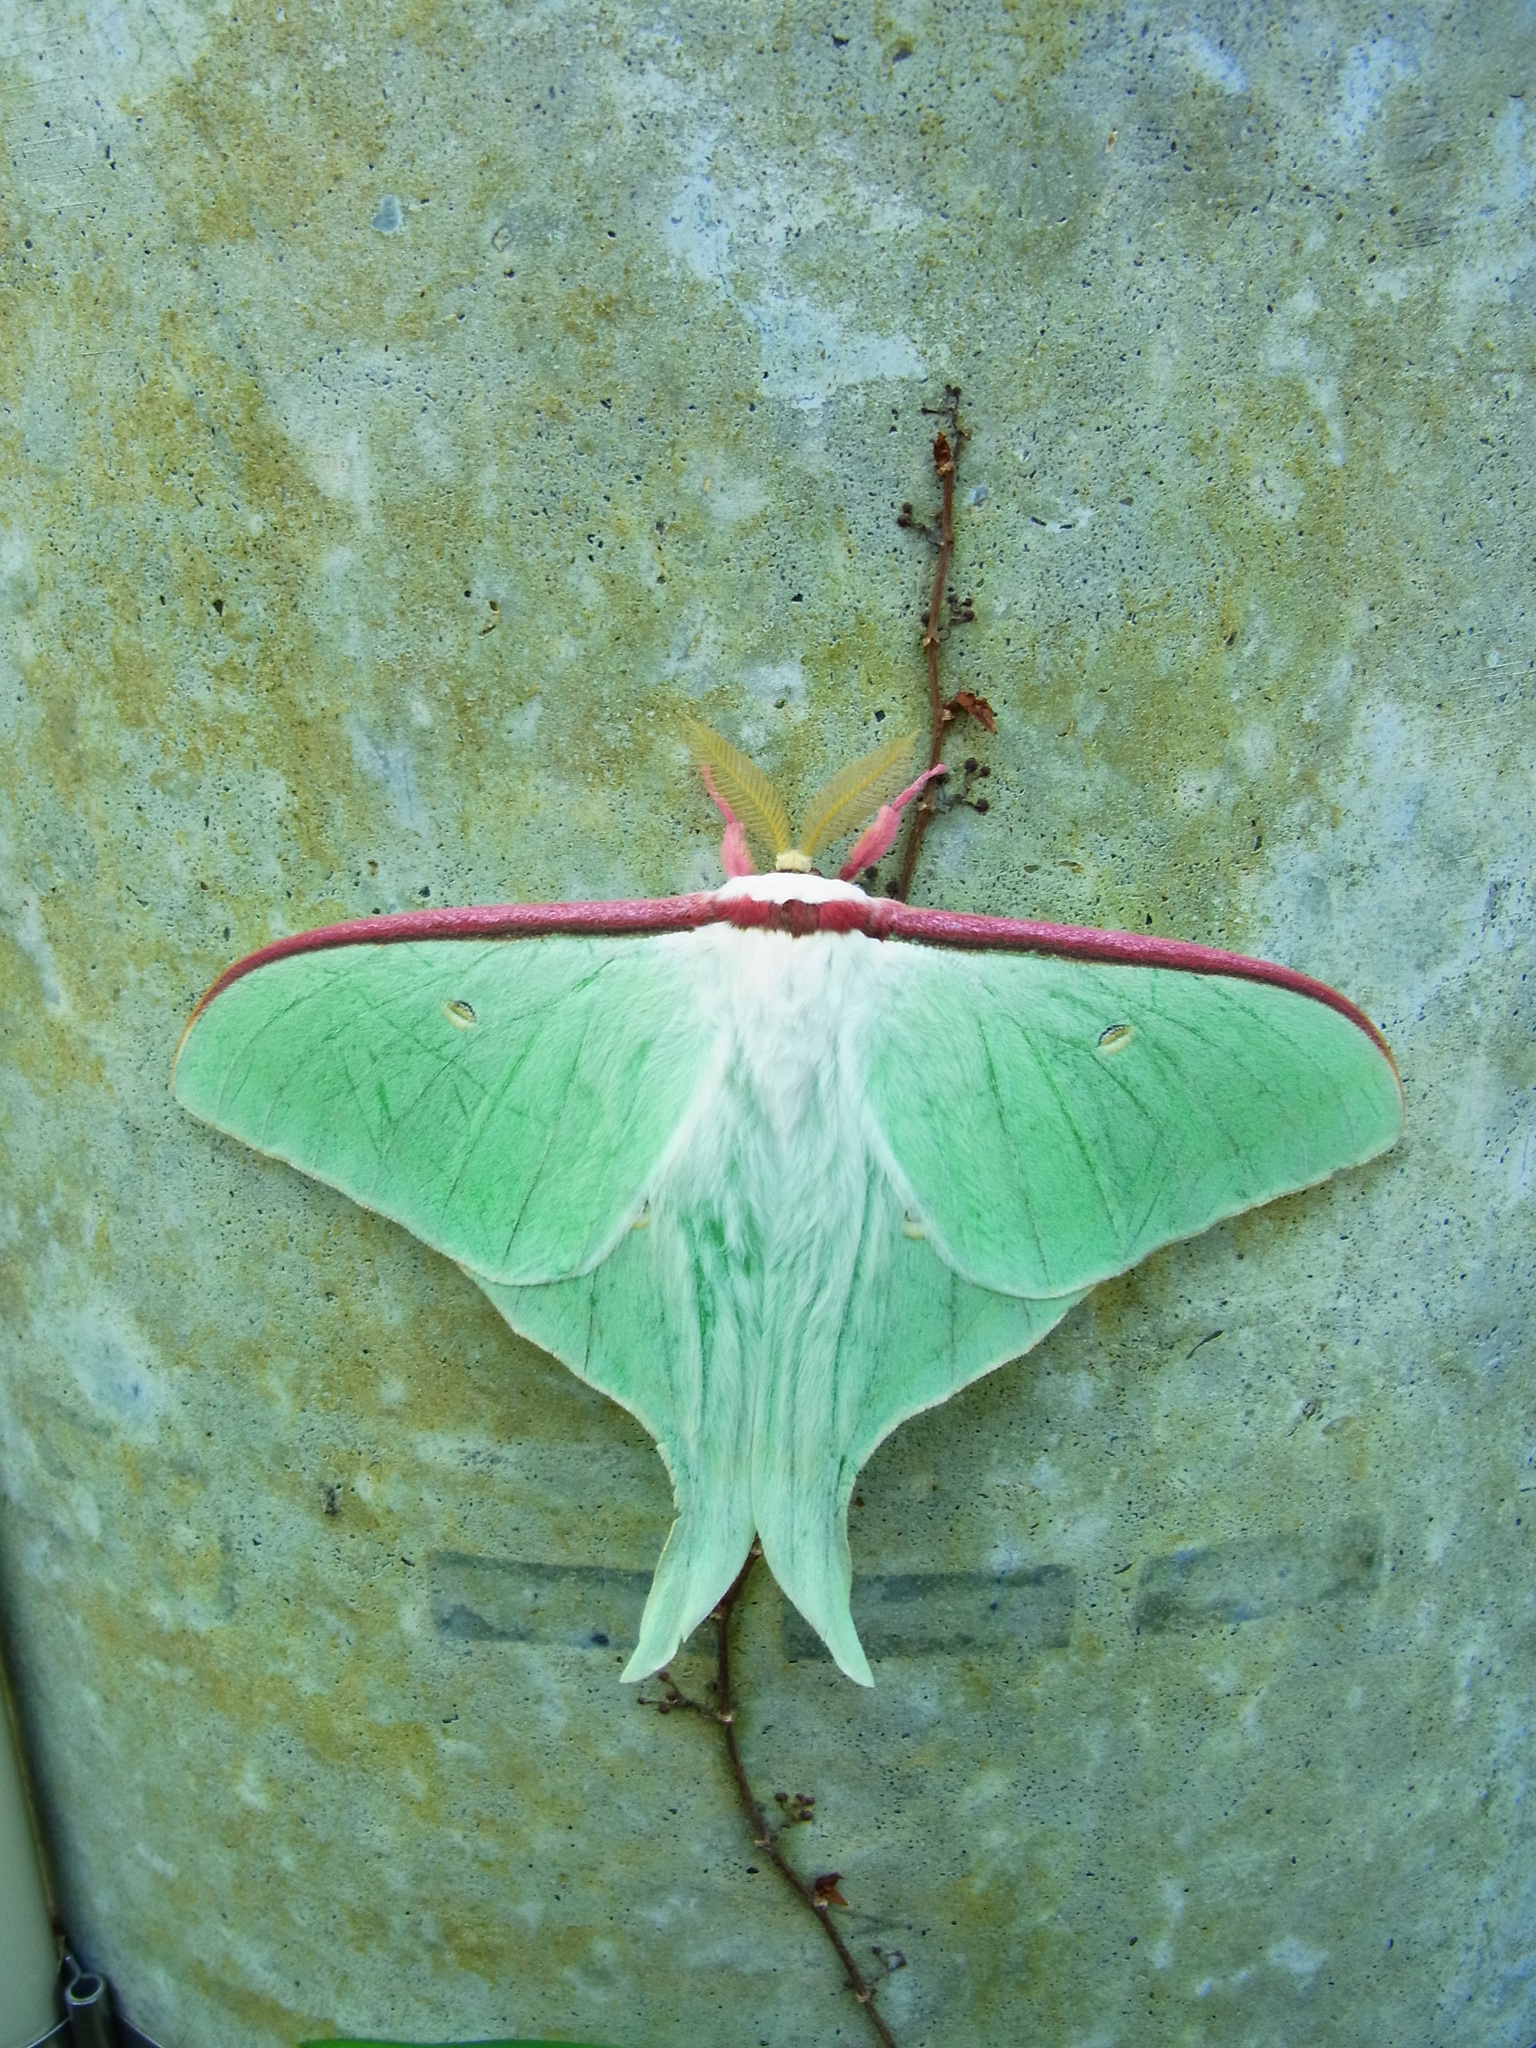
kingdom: Animalia
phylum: Arthropoda
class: Insecta
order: Lepidoptera
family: Saturniidae
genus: Actias
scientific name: Actias aliena
